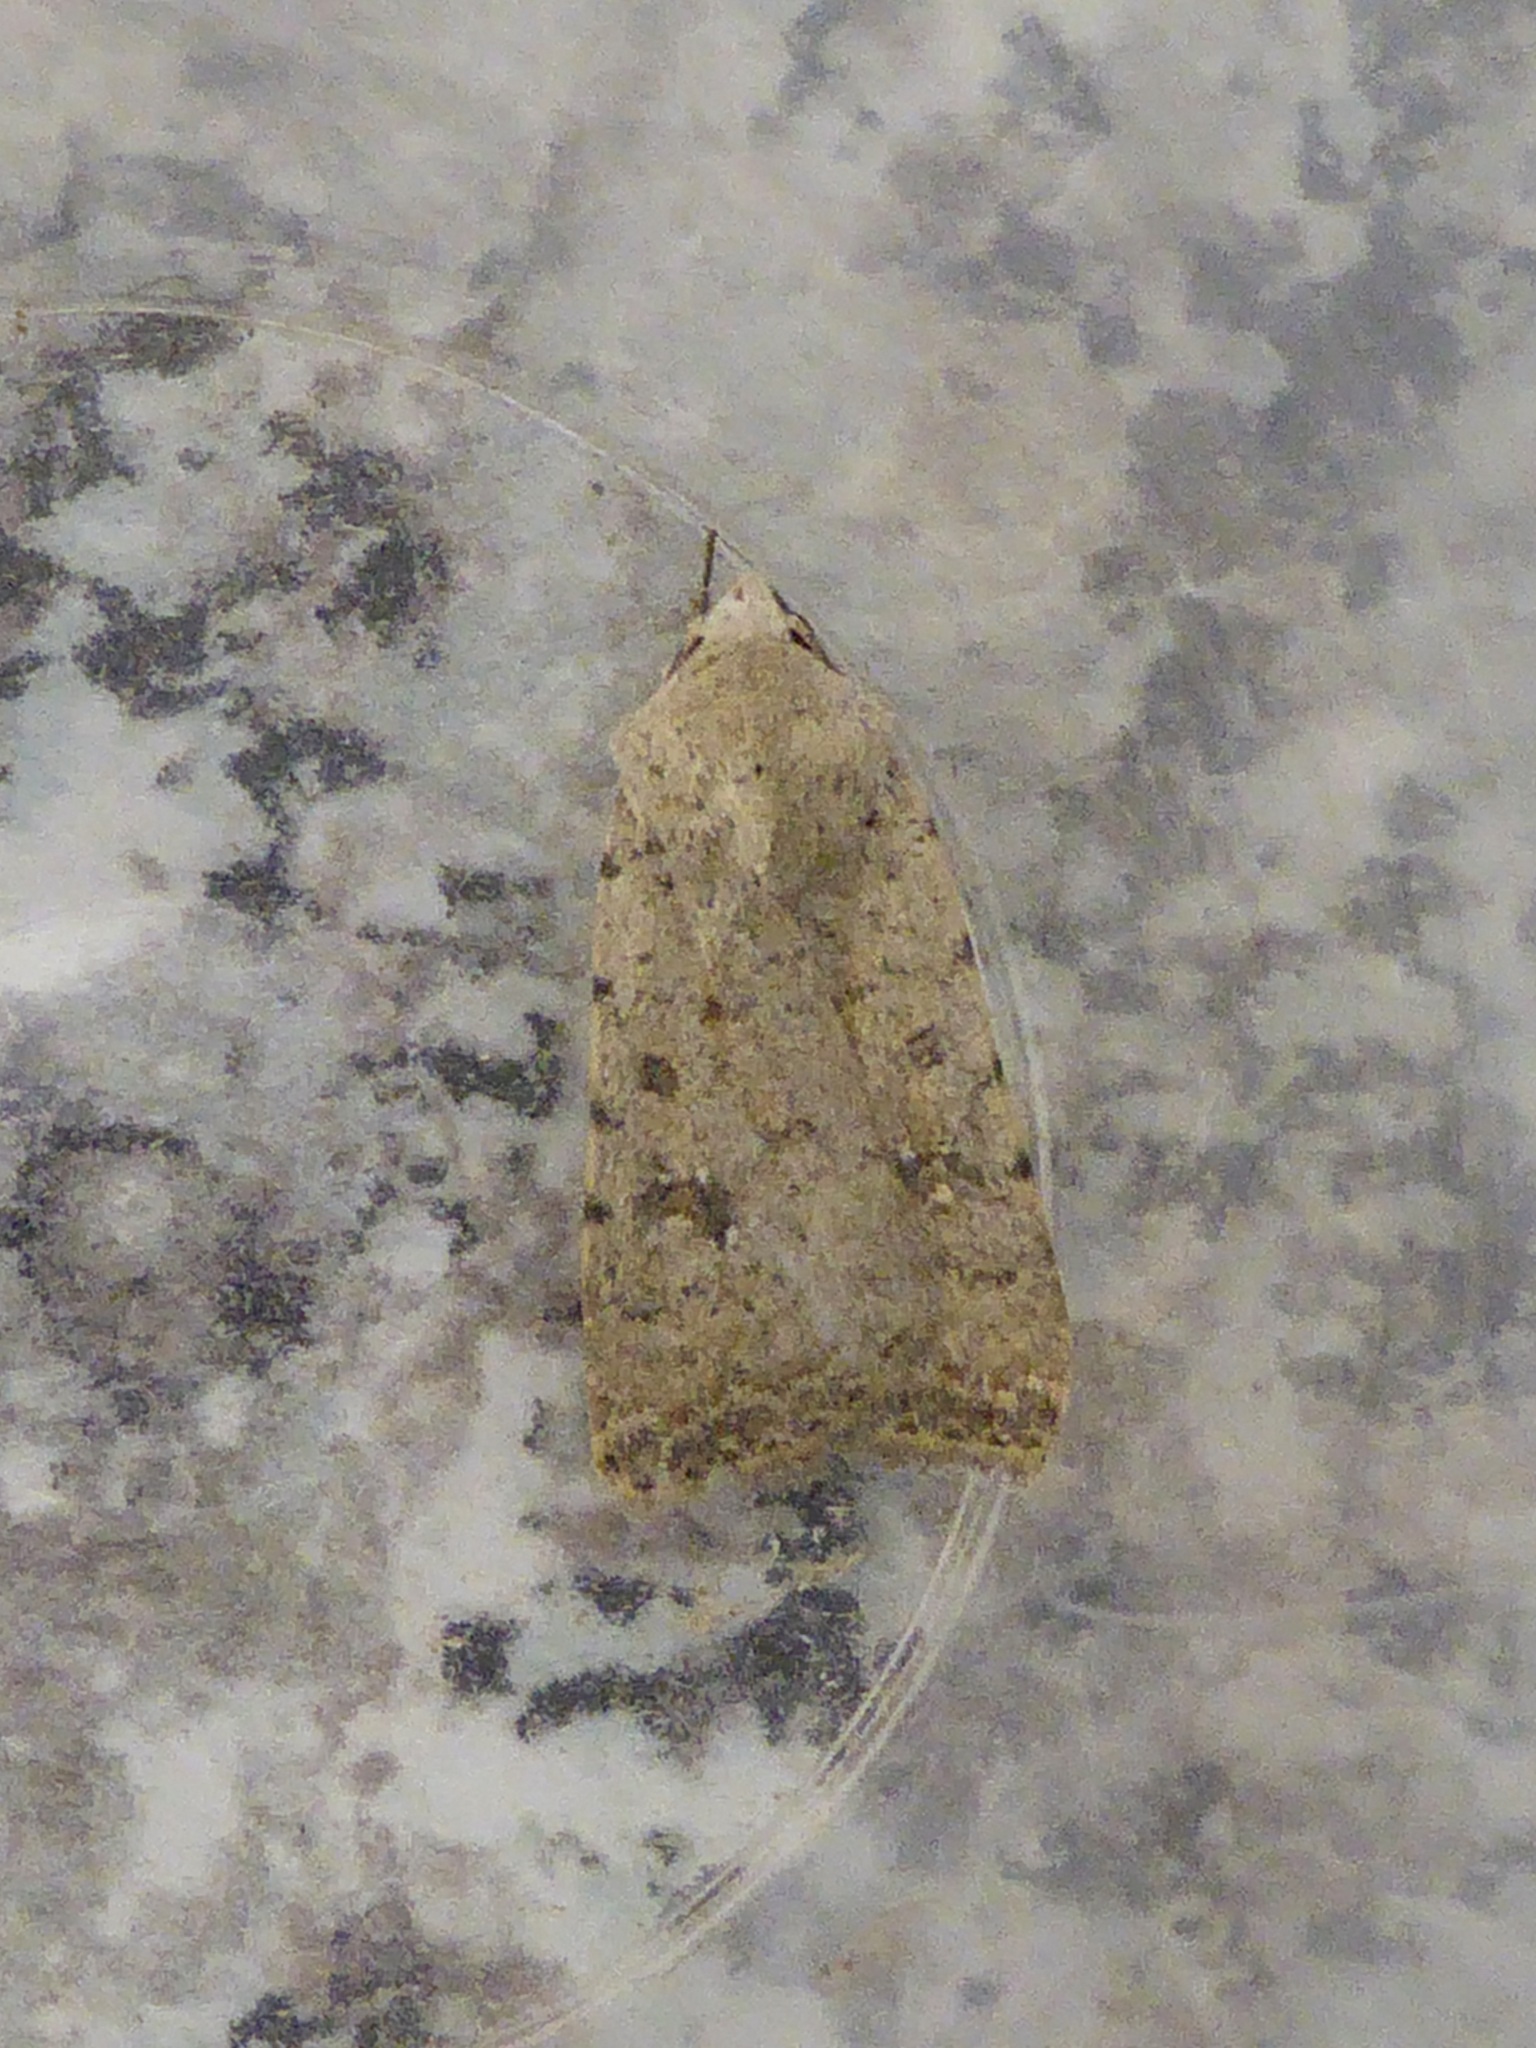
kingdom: Animalia
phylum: Arthropoda
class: Insecta
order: Lepidoptera
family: Noctuidae
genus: Caradrina
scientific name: Caradrina clavipalpis
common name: Pale mottled willow
